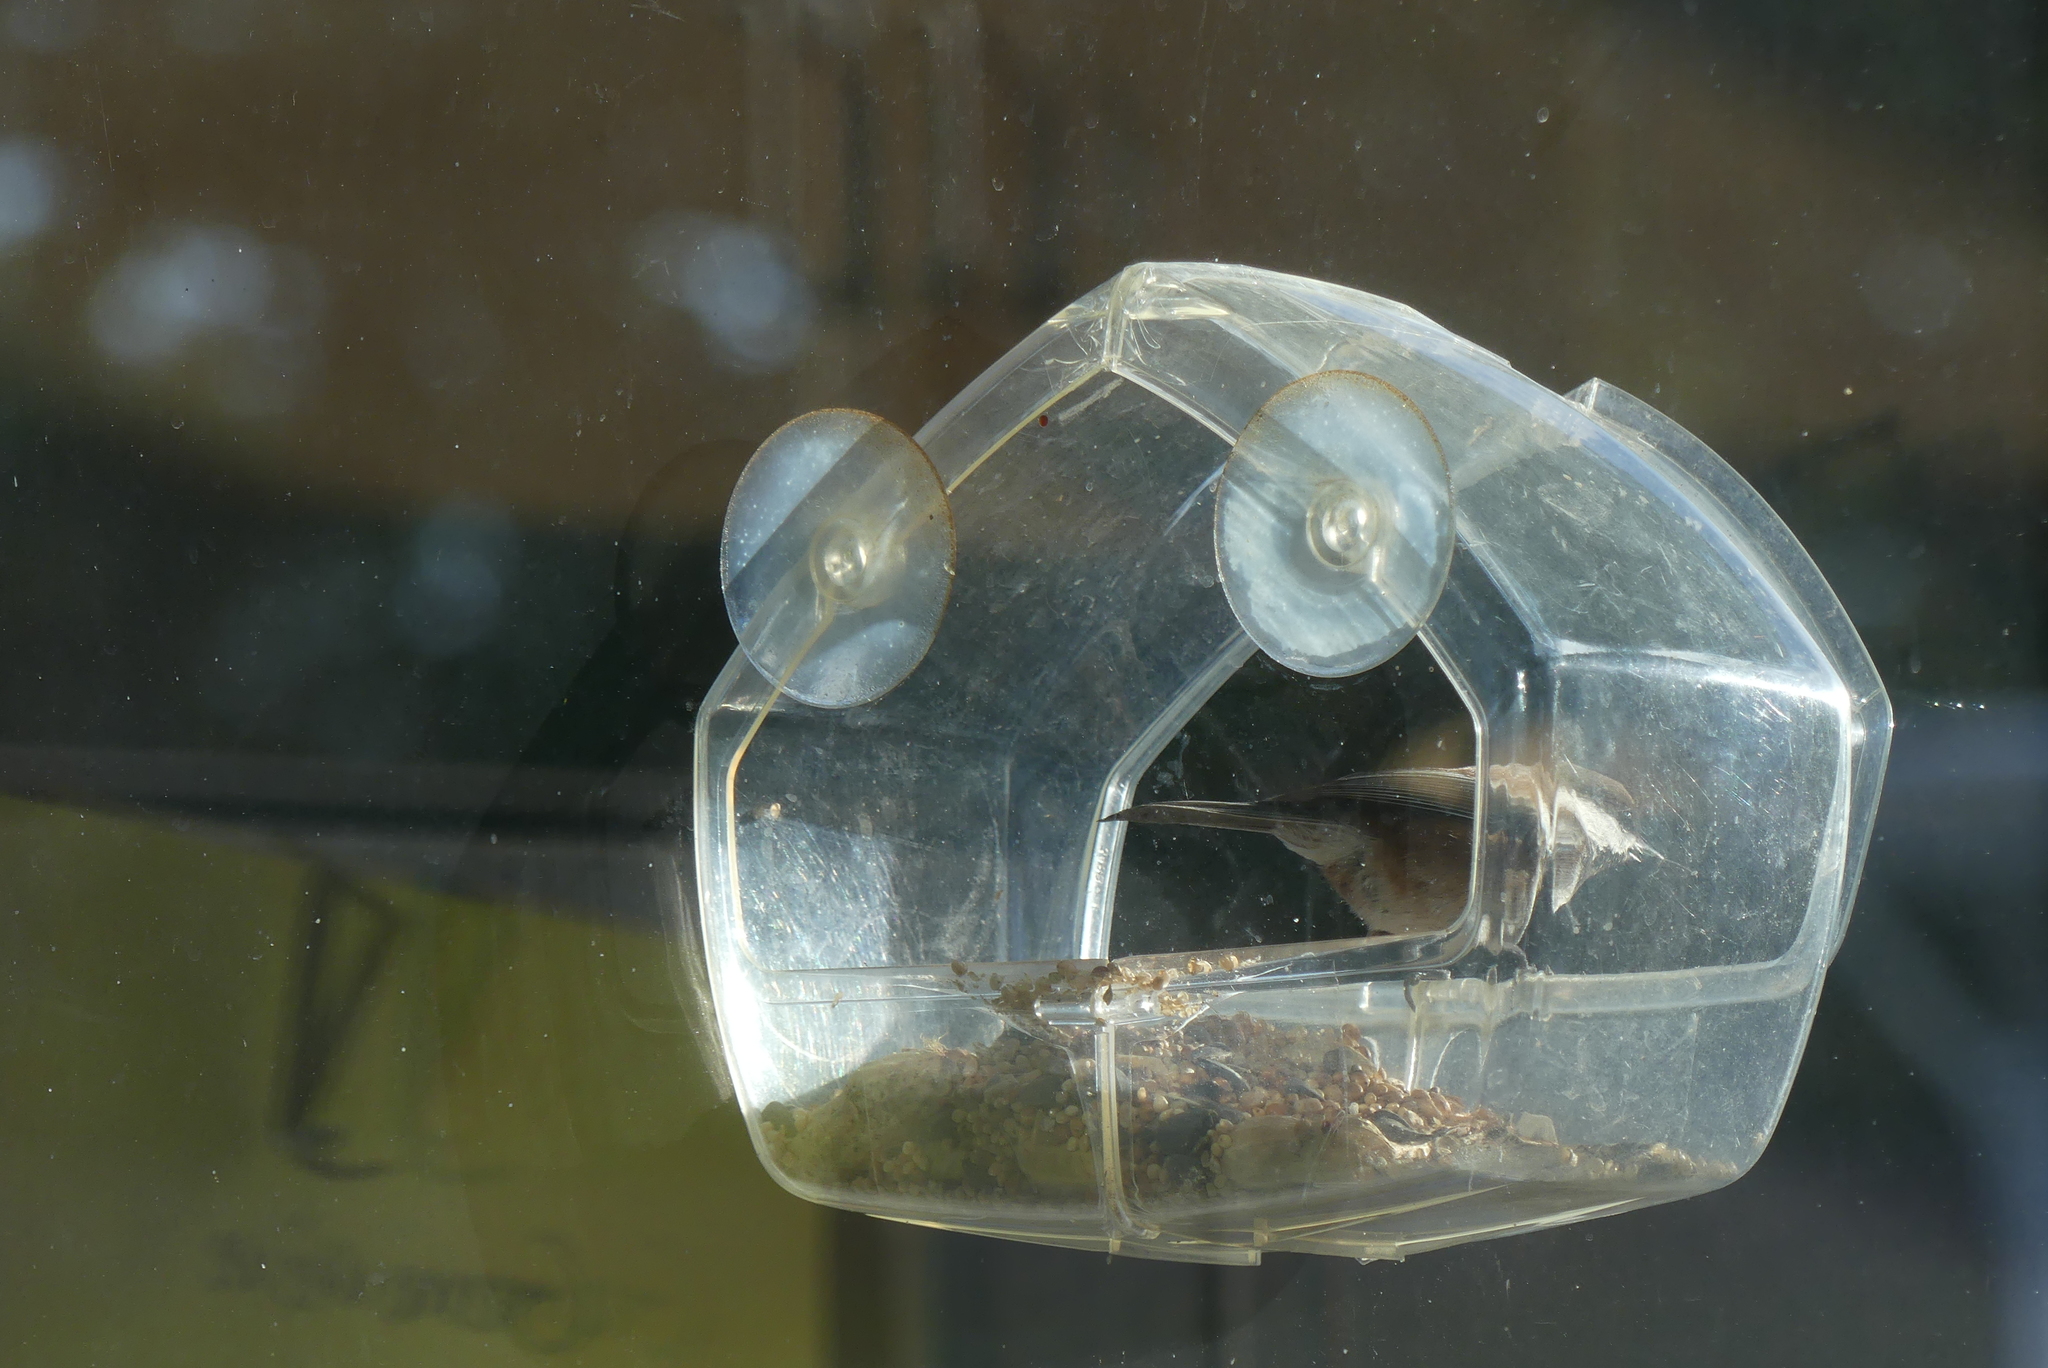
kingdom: Animalia
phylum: Chordata
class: Aves
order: Passeriformes
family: Paridae
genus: Poecile
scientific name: Poecile rufescens
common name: Chestnut-backed chickadee
